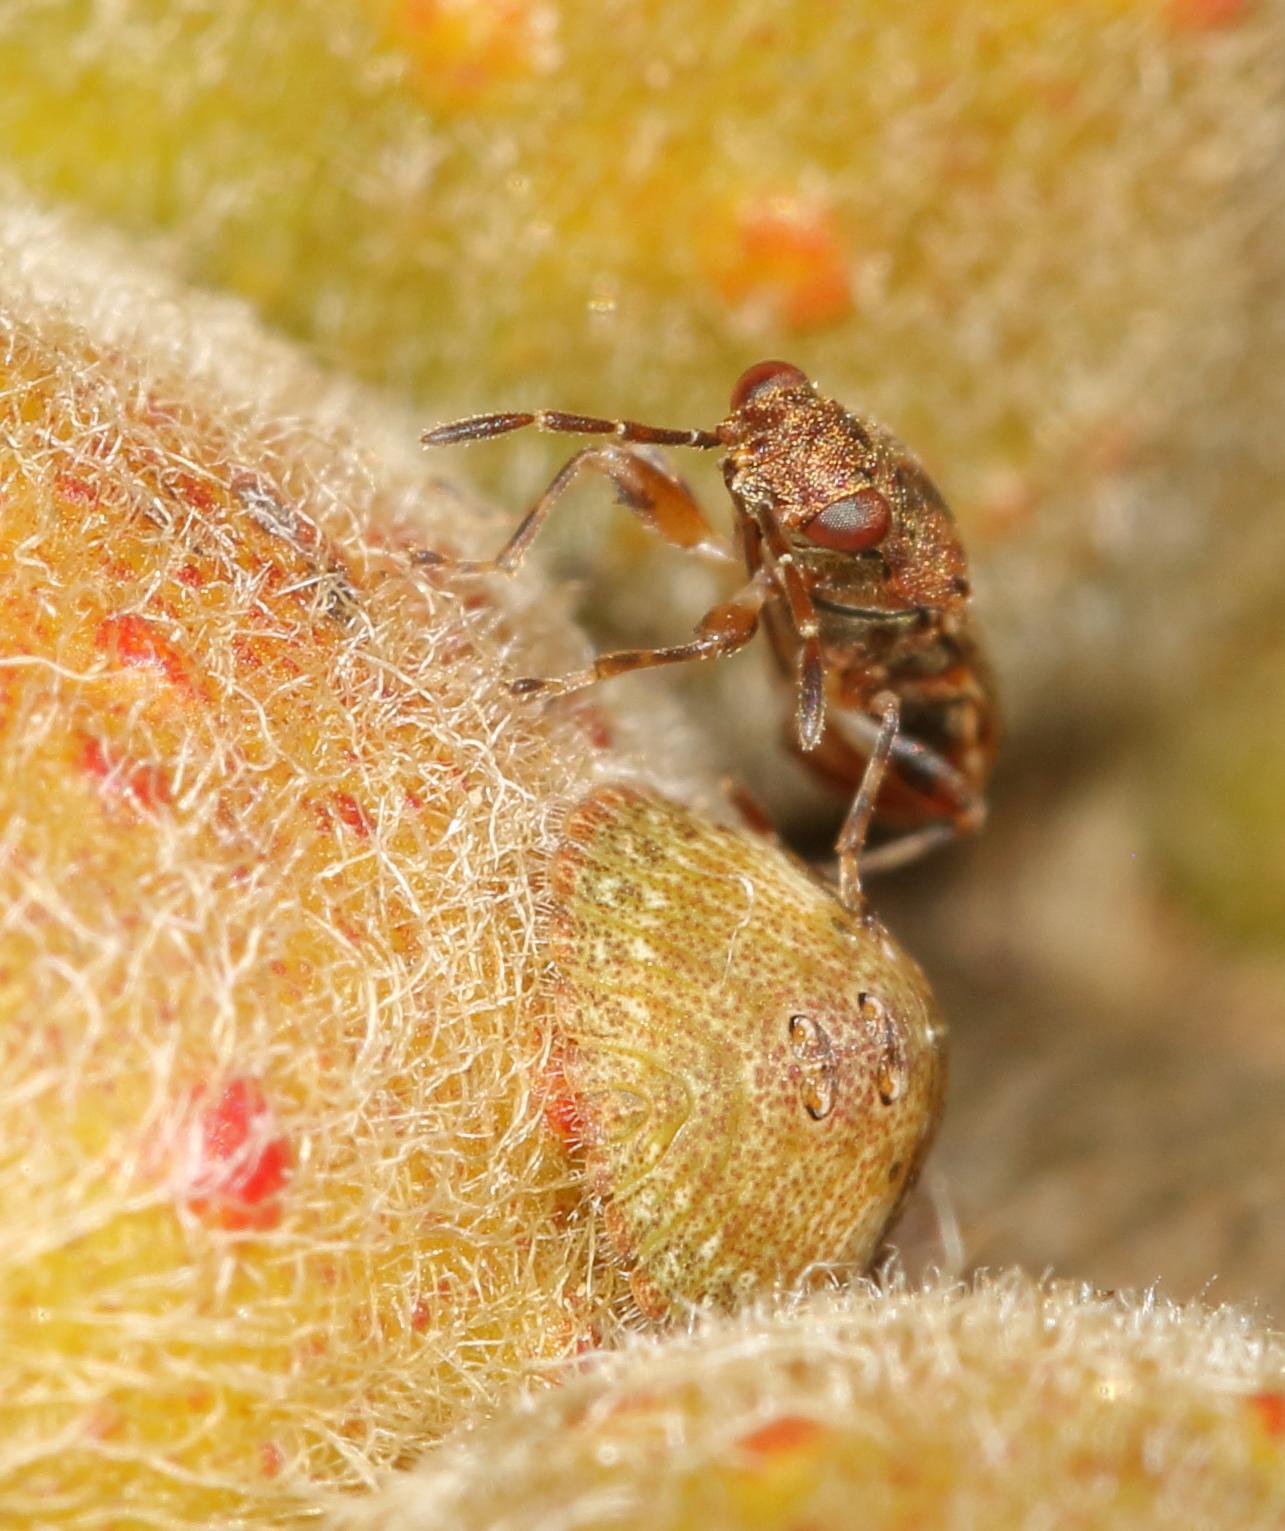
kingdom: Animalia
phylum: Arthropoda
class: Insecta
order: Hemiptera
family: Heterogastridae
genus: Dinomachellus
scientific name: Dinomachellus maculatus
